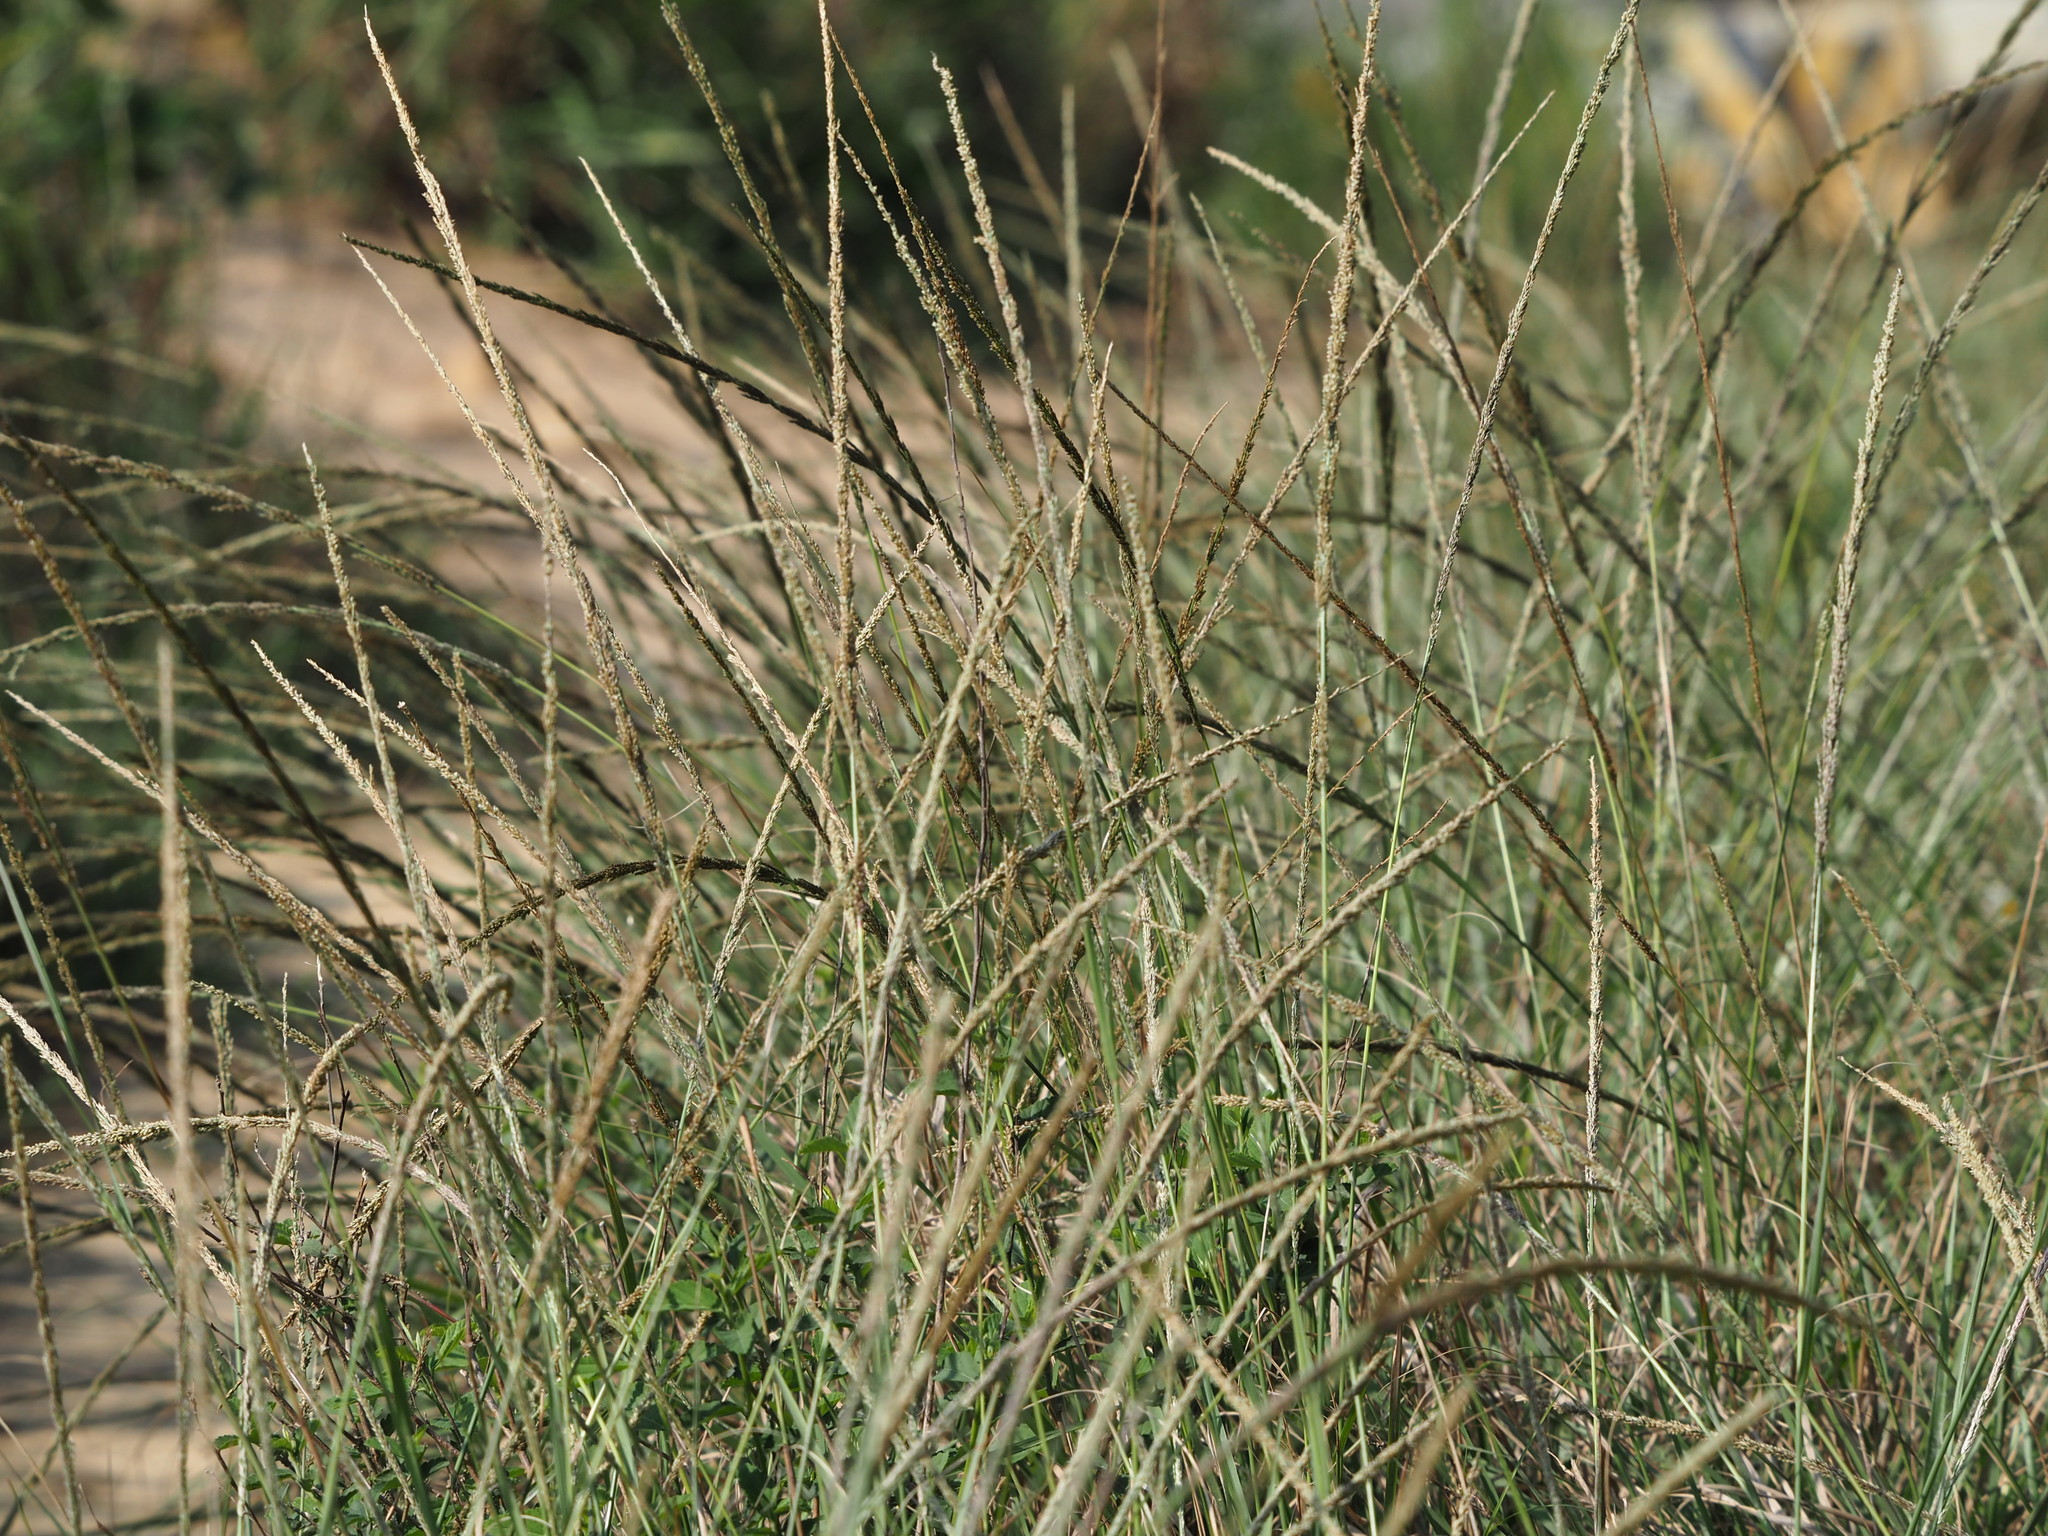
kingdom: Plantae
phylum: Tracheophyta
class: Liliopsida
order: Poales
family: Poaceae
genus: Sporobolus
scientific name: Sporobolus indicus
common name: Smut grass
